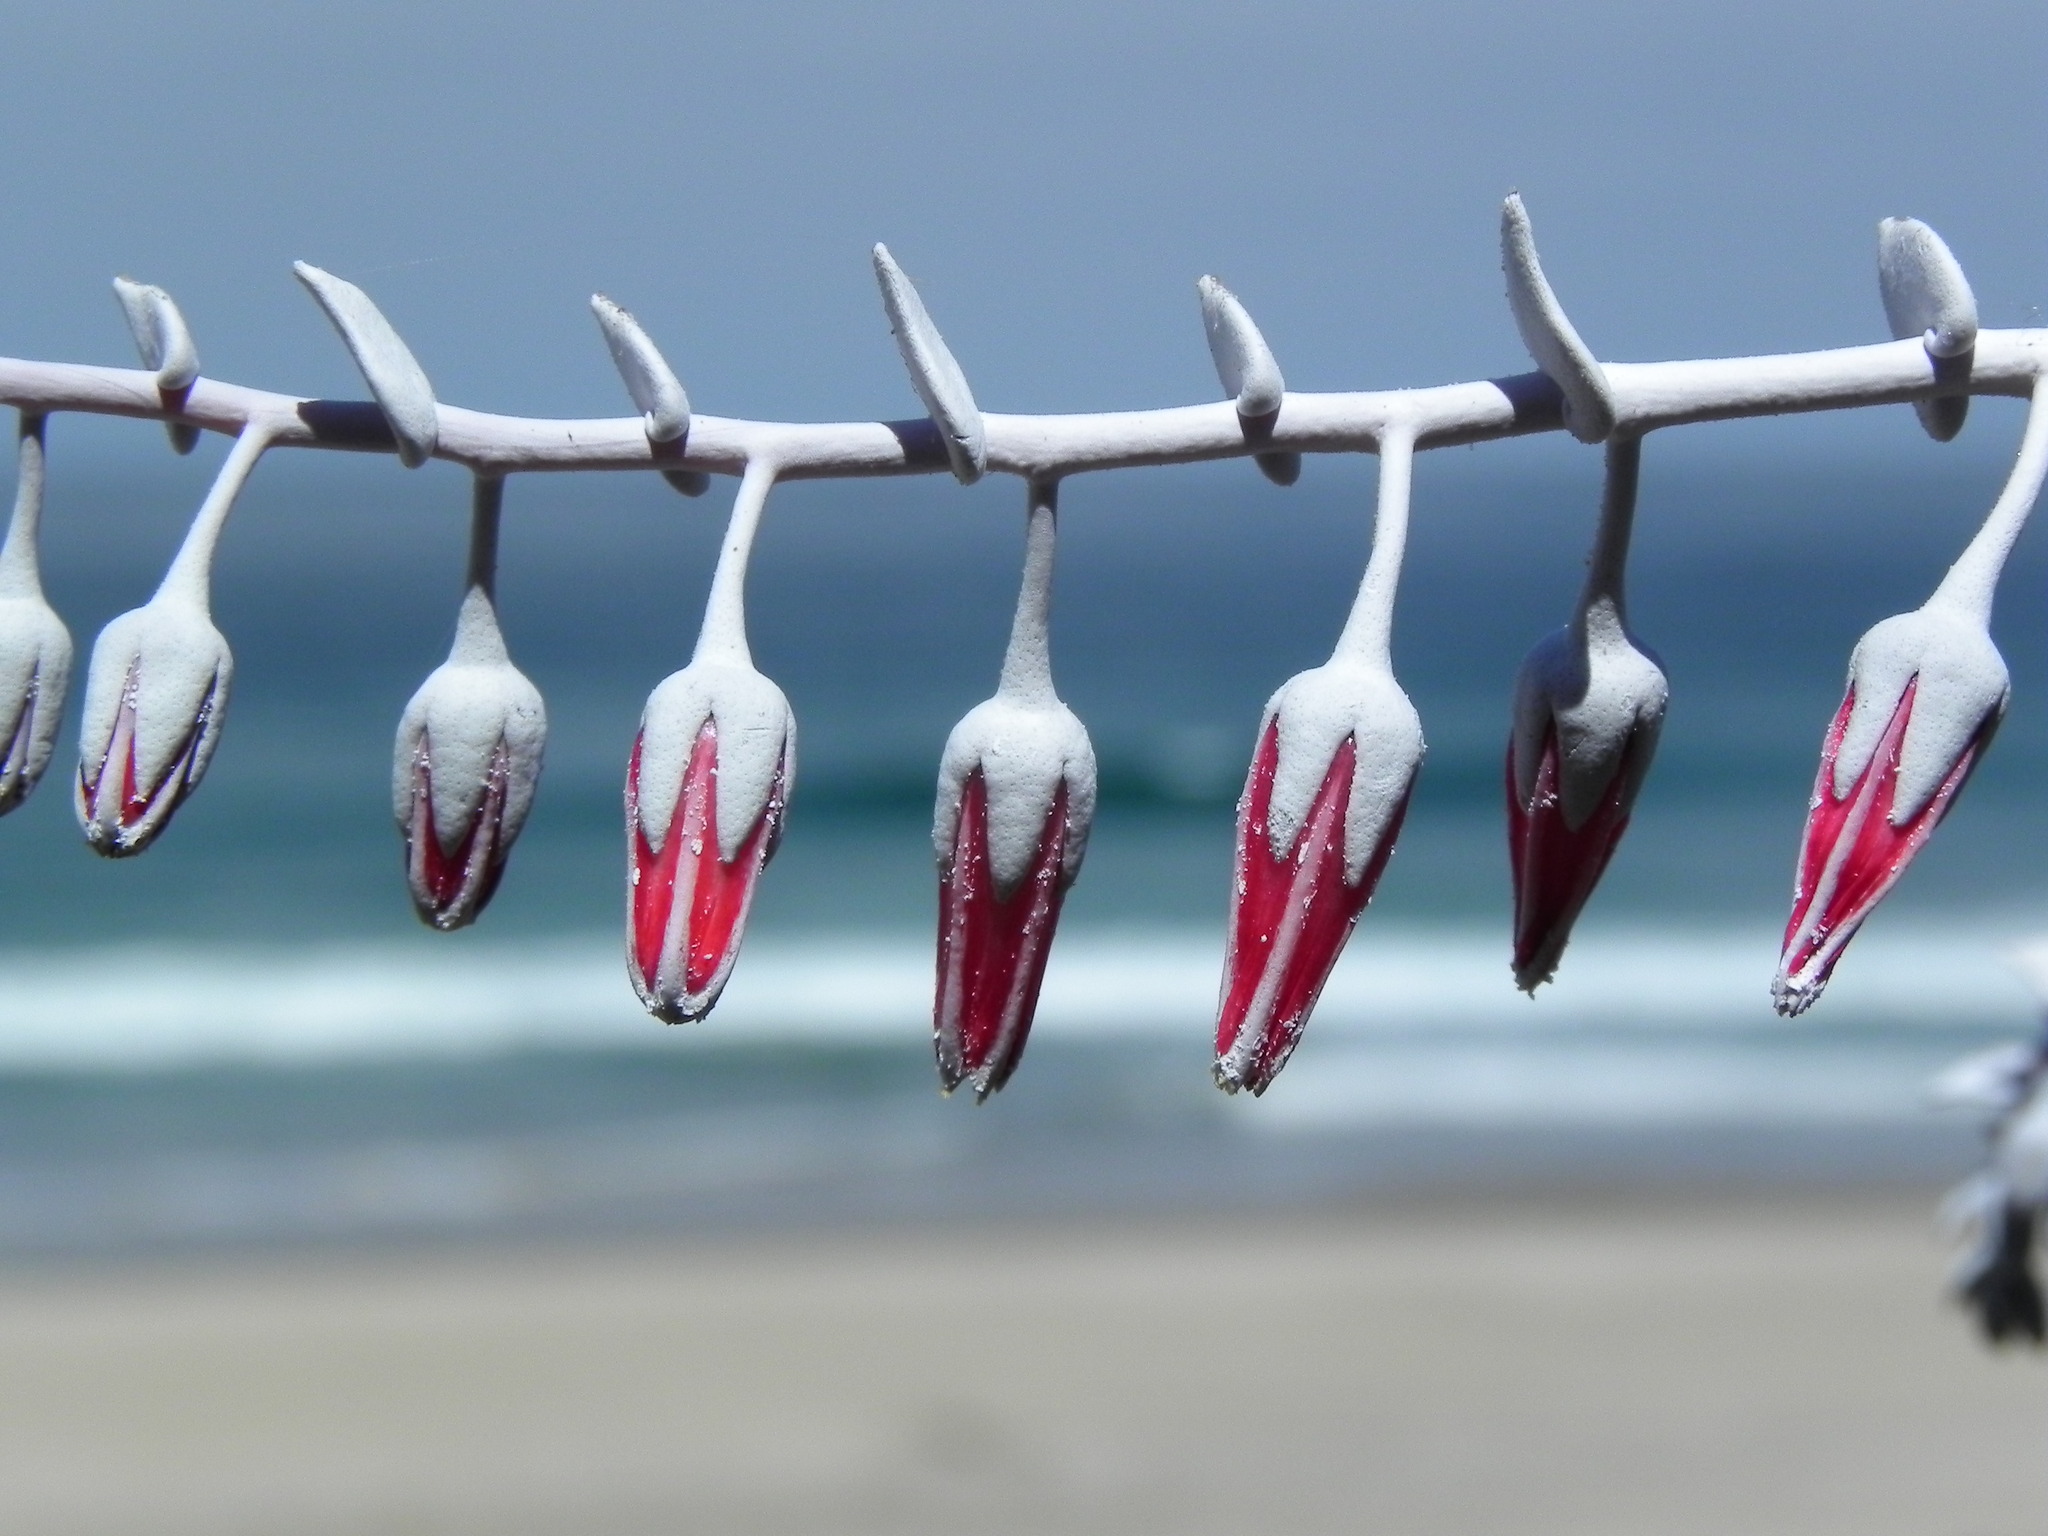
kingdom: Plantae
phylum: Tracheophyta
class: Magnoliopsida
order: Saxifragales
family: Crassulaceae
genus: Dudleya
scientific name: Dudleya pulverulenta
